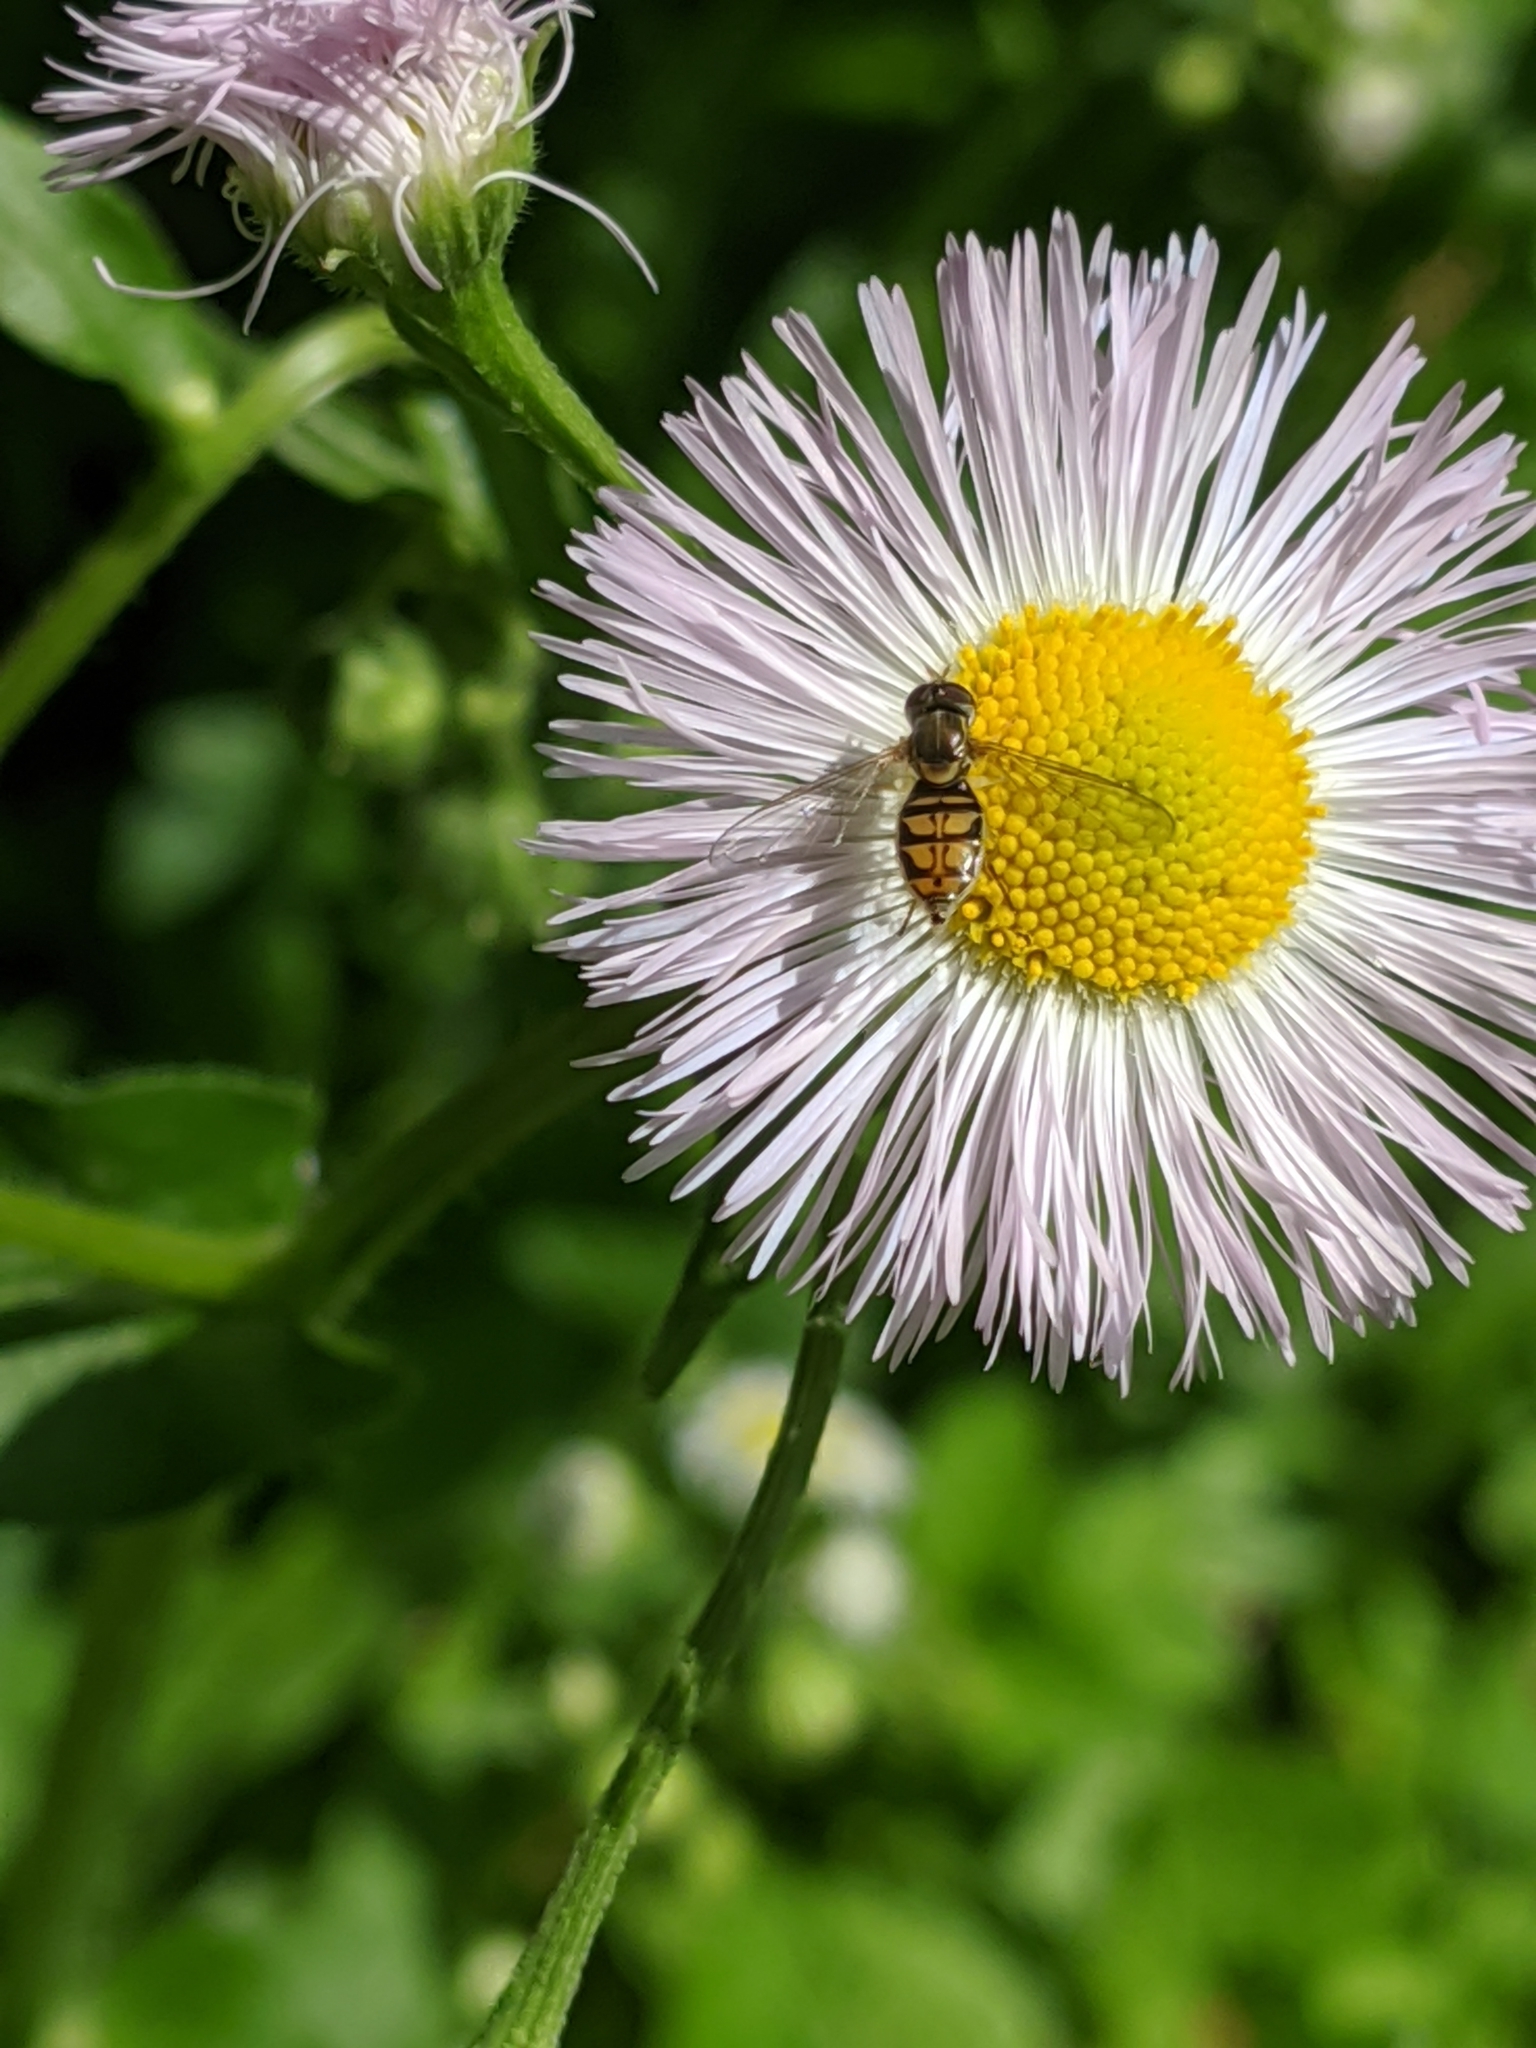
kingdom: Animalia
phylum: Arthropoda
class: Insecta
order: Diptera
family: Syrphidae
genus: Toxomerus
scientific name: Toxomerus marginatus
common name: Syrphid fly
